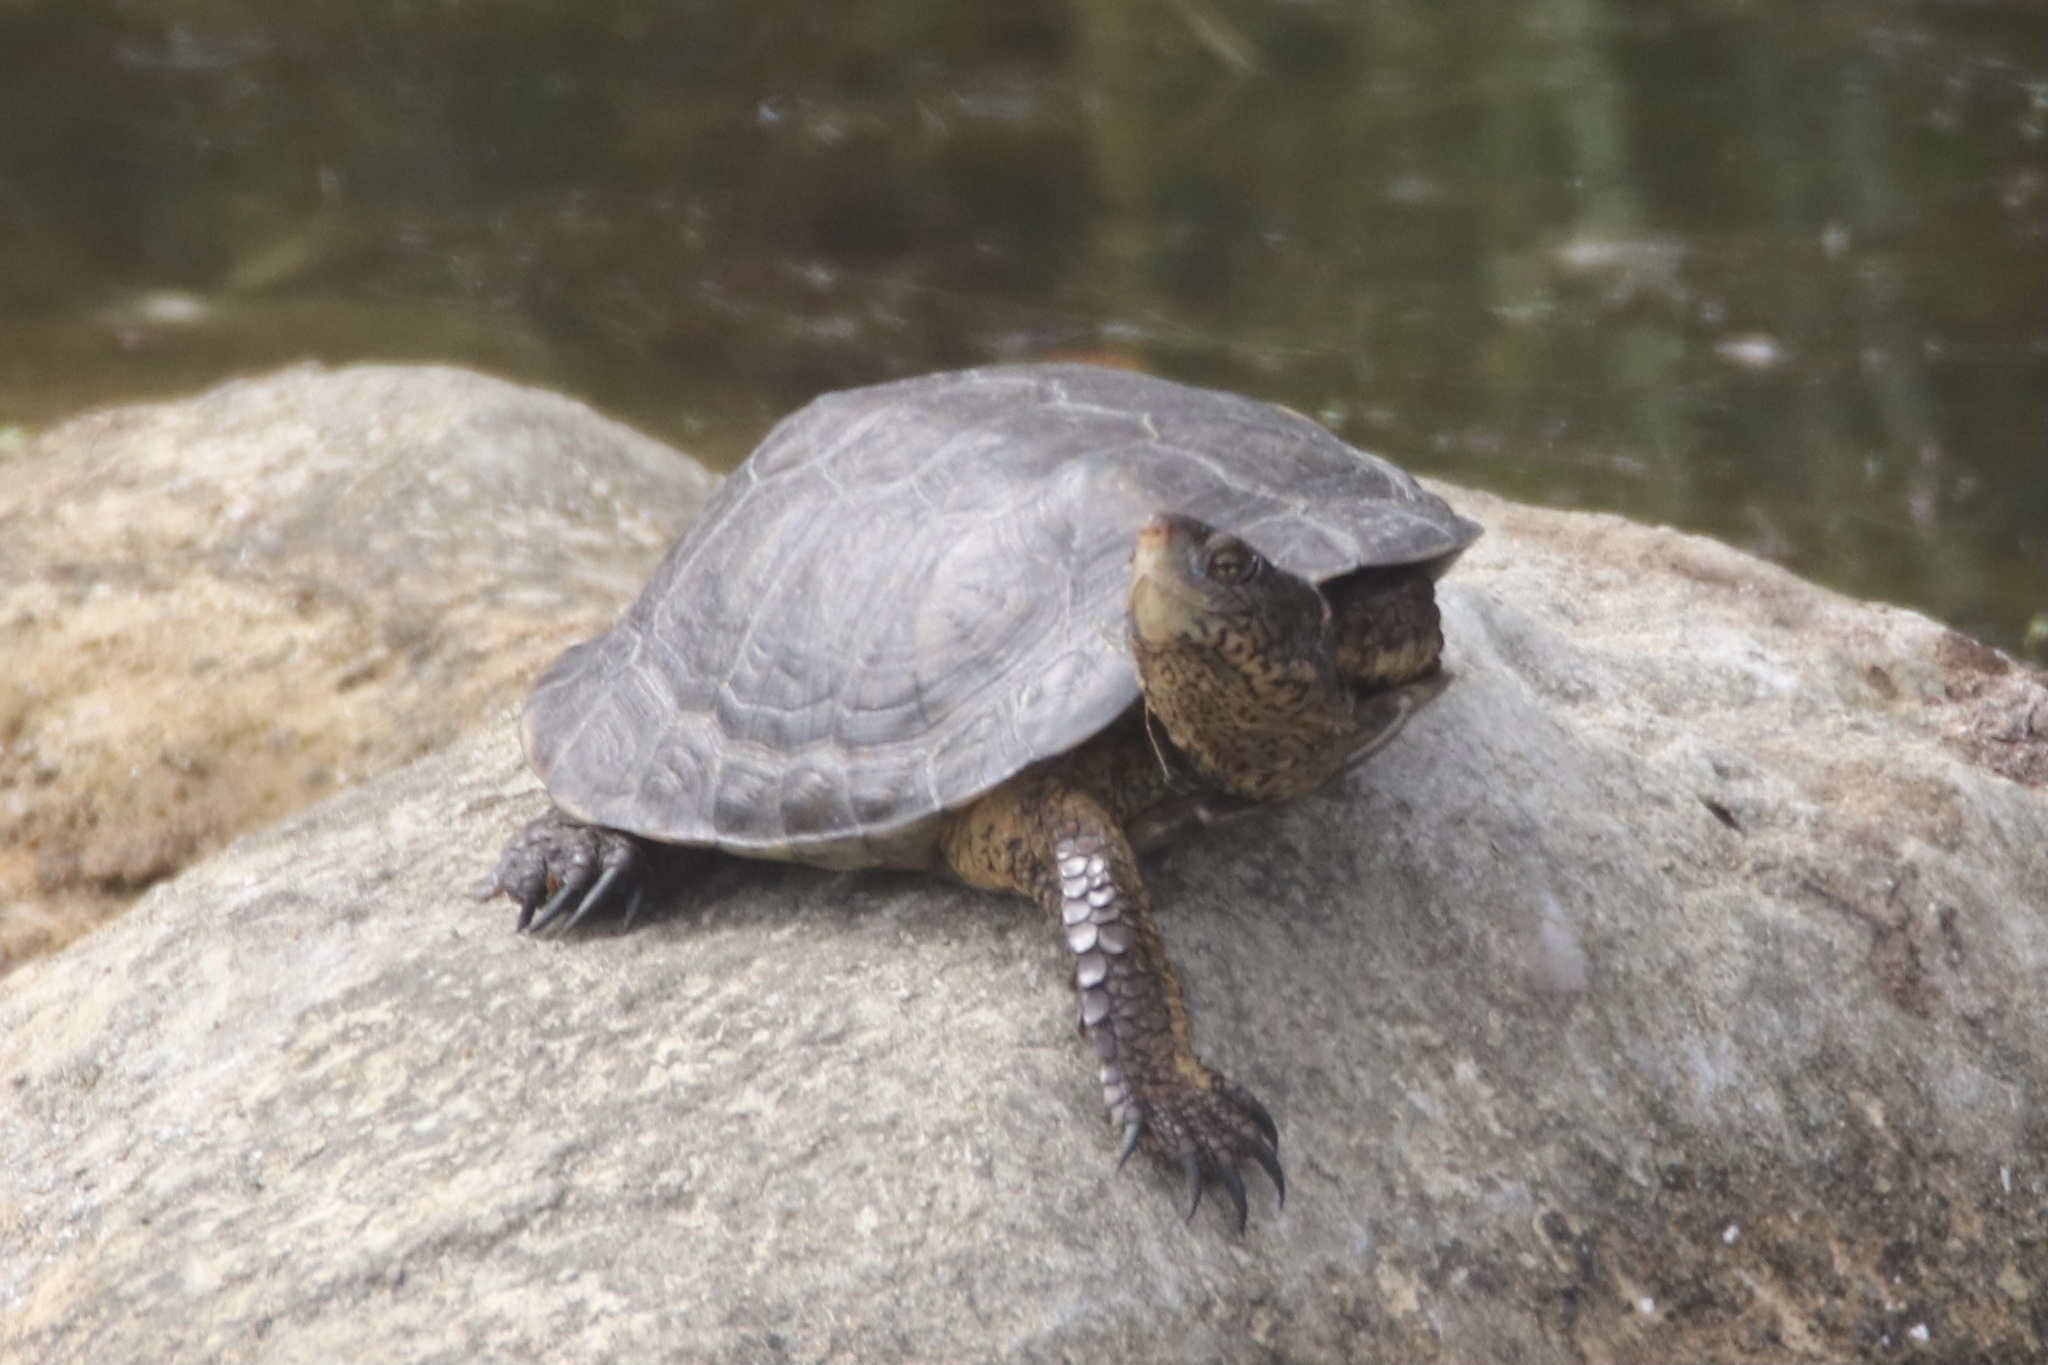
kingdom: Animalia
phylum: Chordata
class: Testudines
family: Emydidae
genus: Actinemys
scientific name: Actinemys marmorata
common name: Western pond turtle
